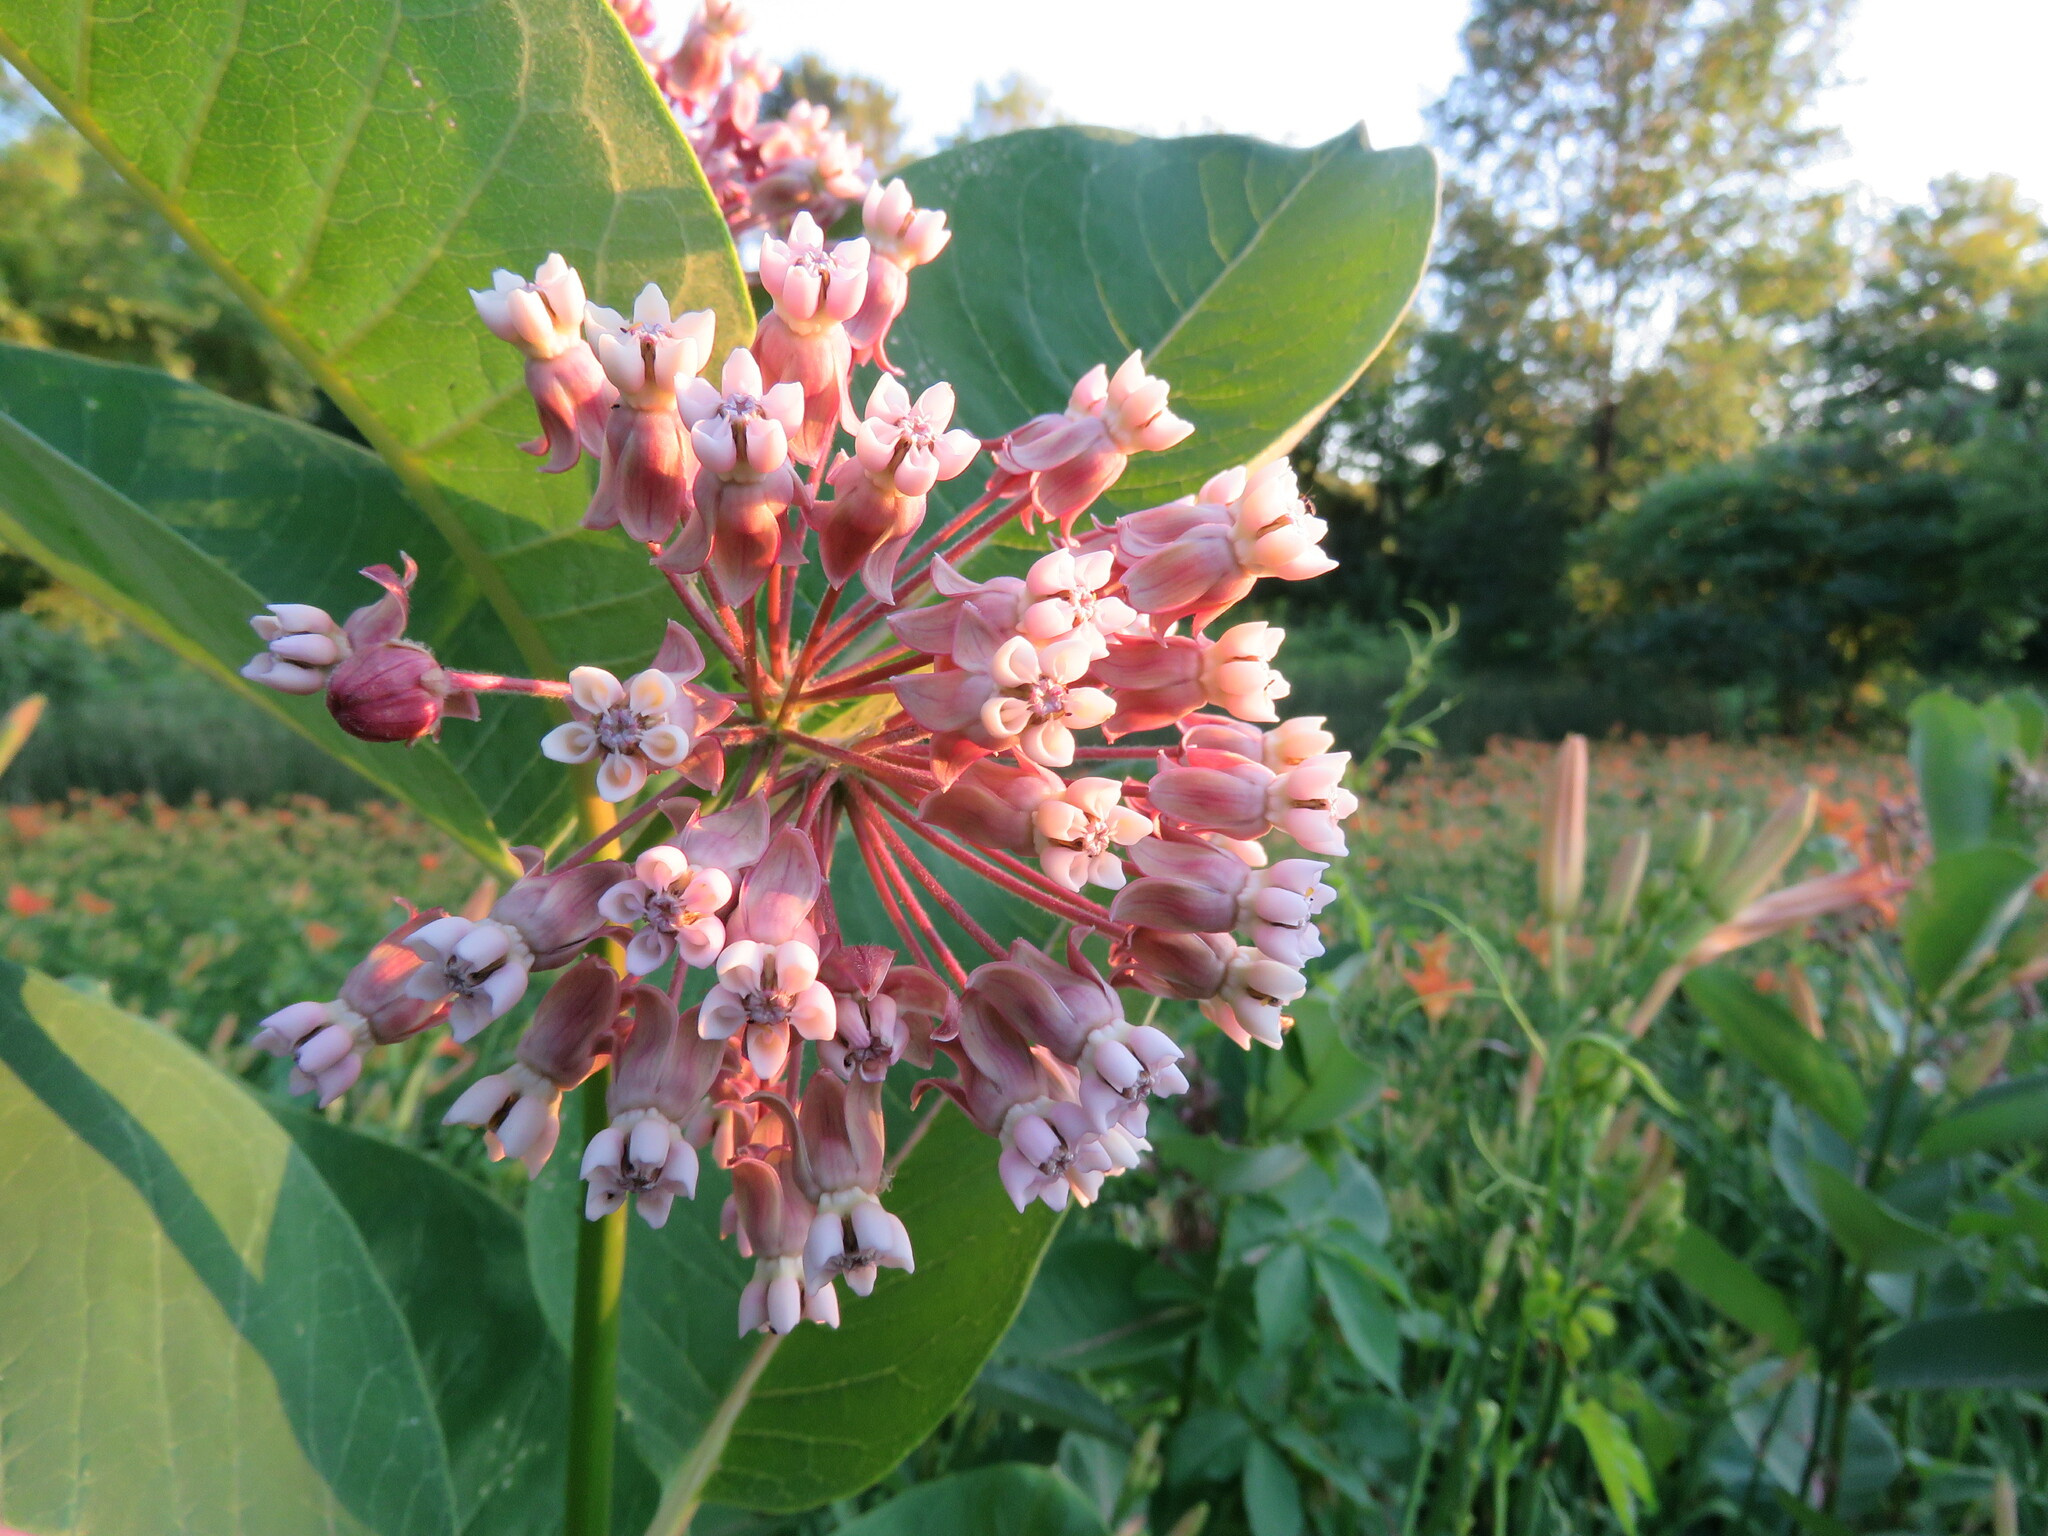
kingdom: Plantae
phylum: Tracheophyta
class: Magnoliopsida
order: Gentianales
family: Apocynaceae
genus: Asclepias
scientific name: Asclepias syriaca
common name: Common milkweed
